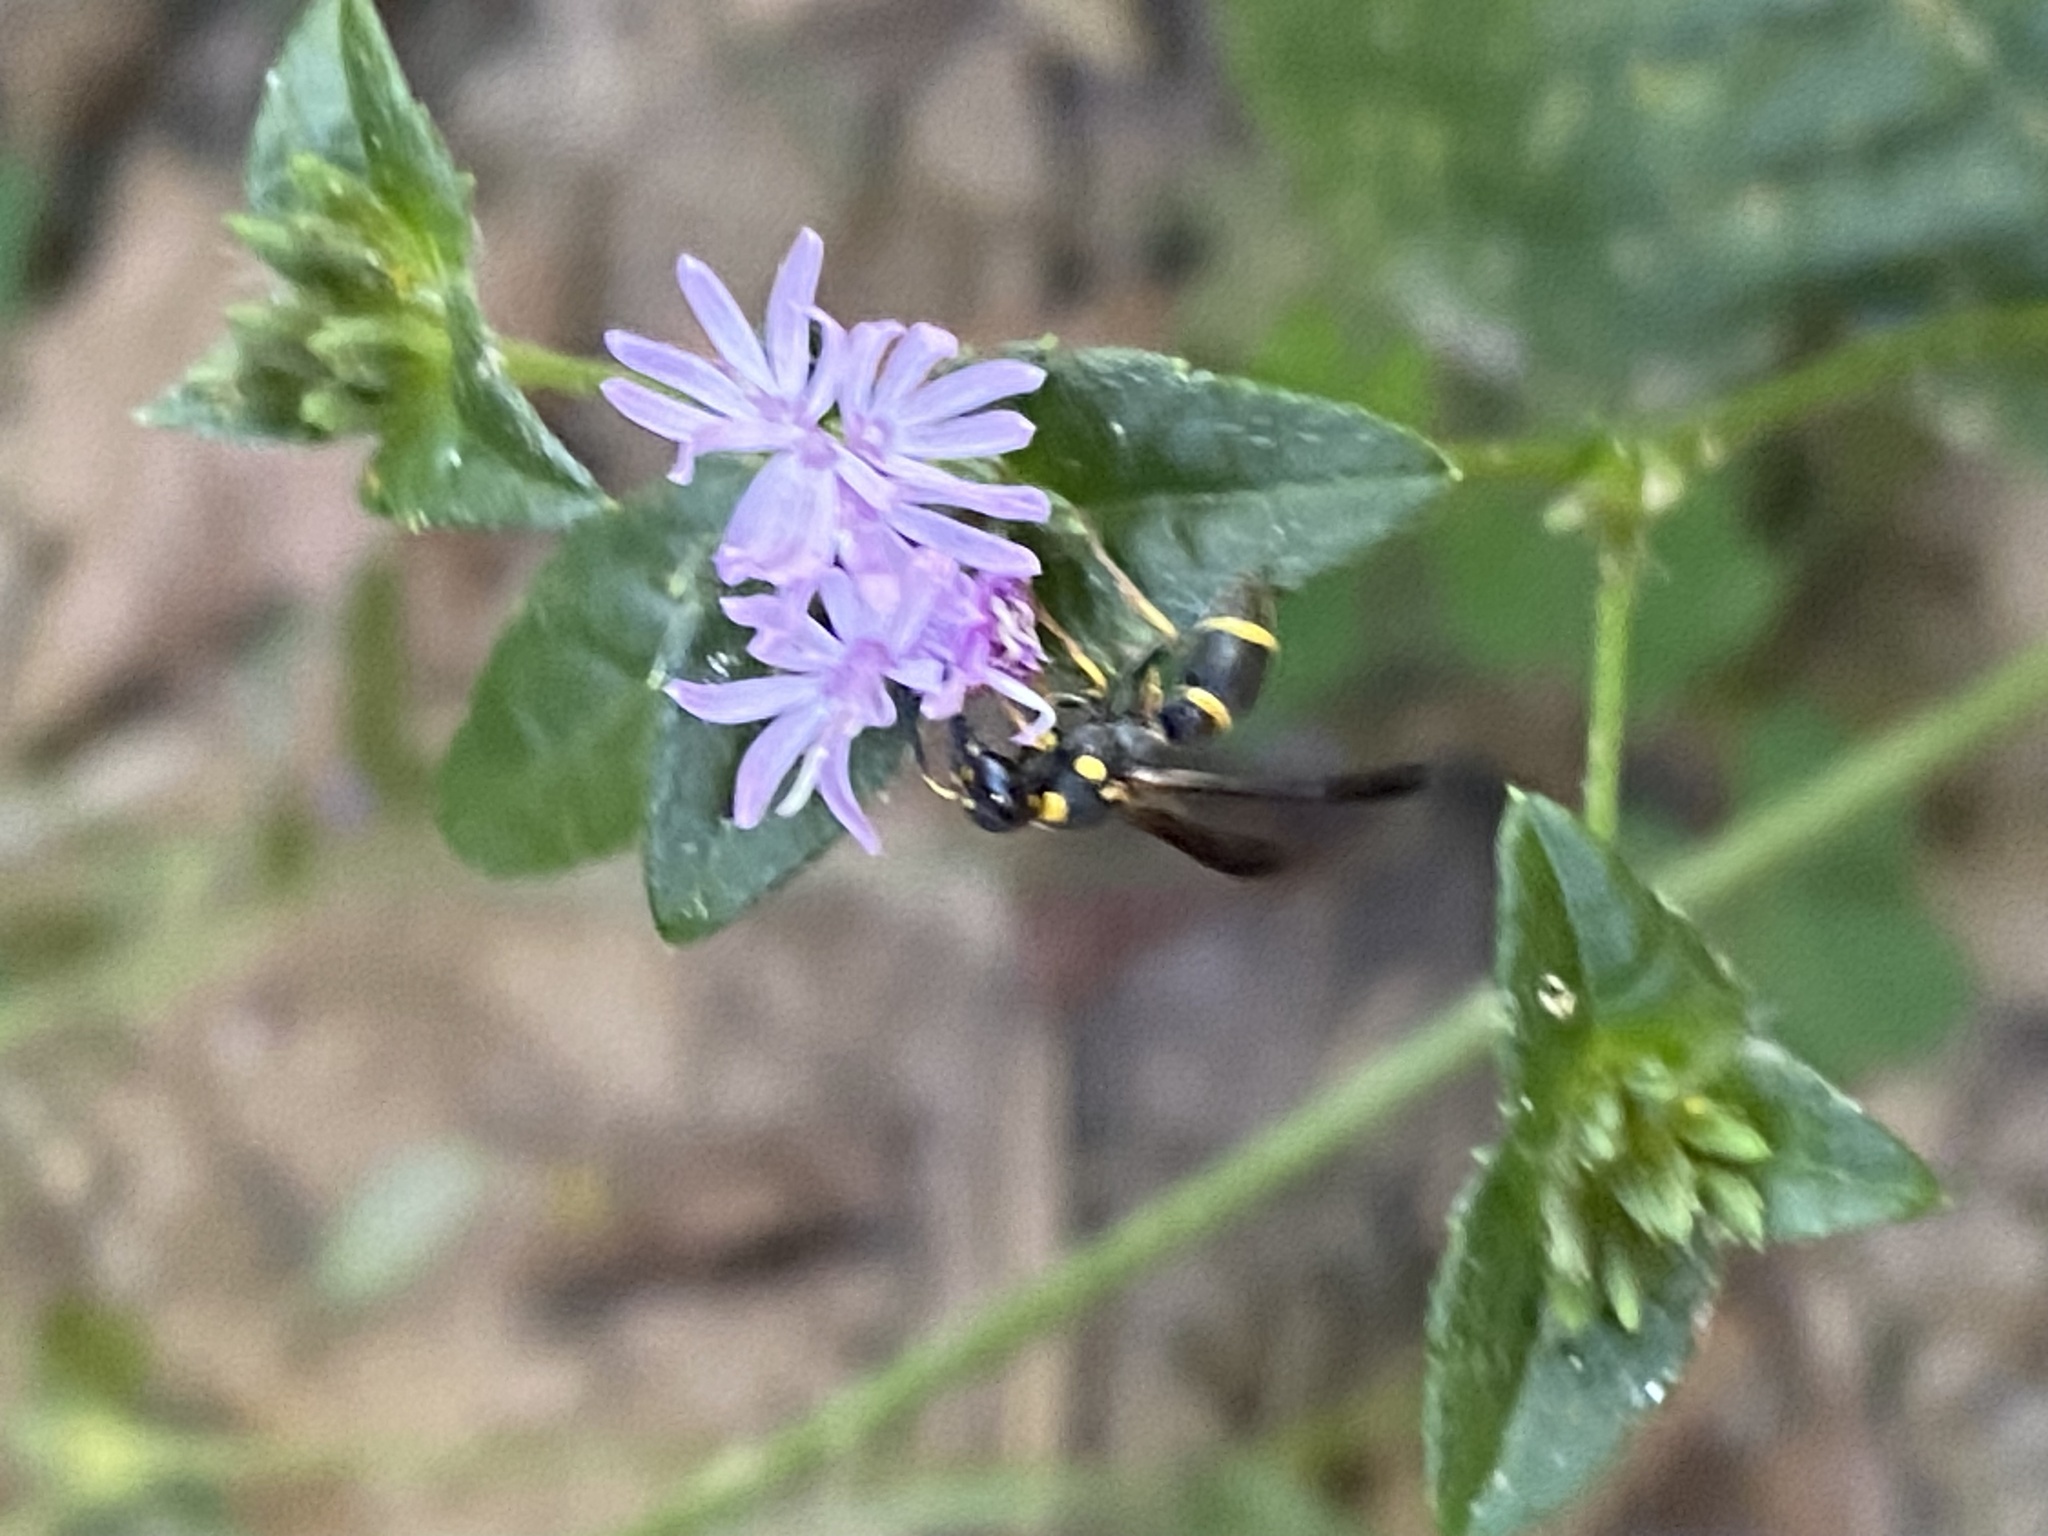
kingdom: Animalia
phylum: Arthropoda
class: Insecta
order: Hymenoptera
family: Eumenidae
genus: Parancistrocerus
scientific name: Parancistrocerus perennis
